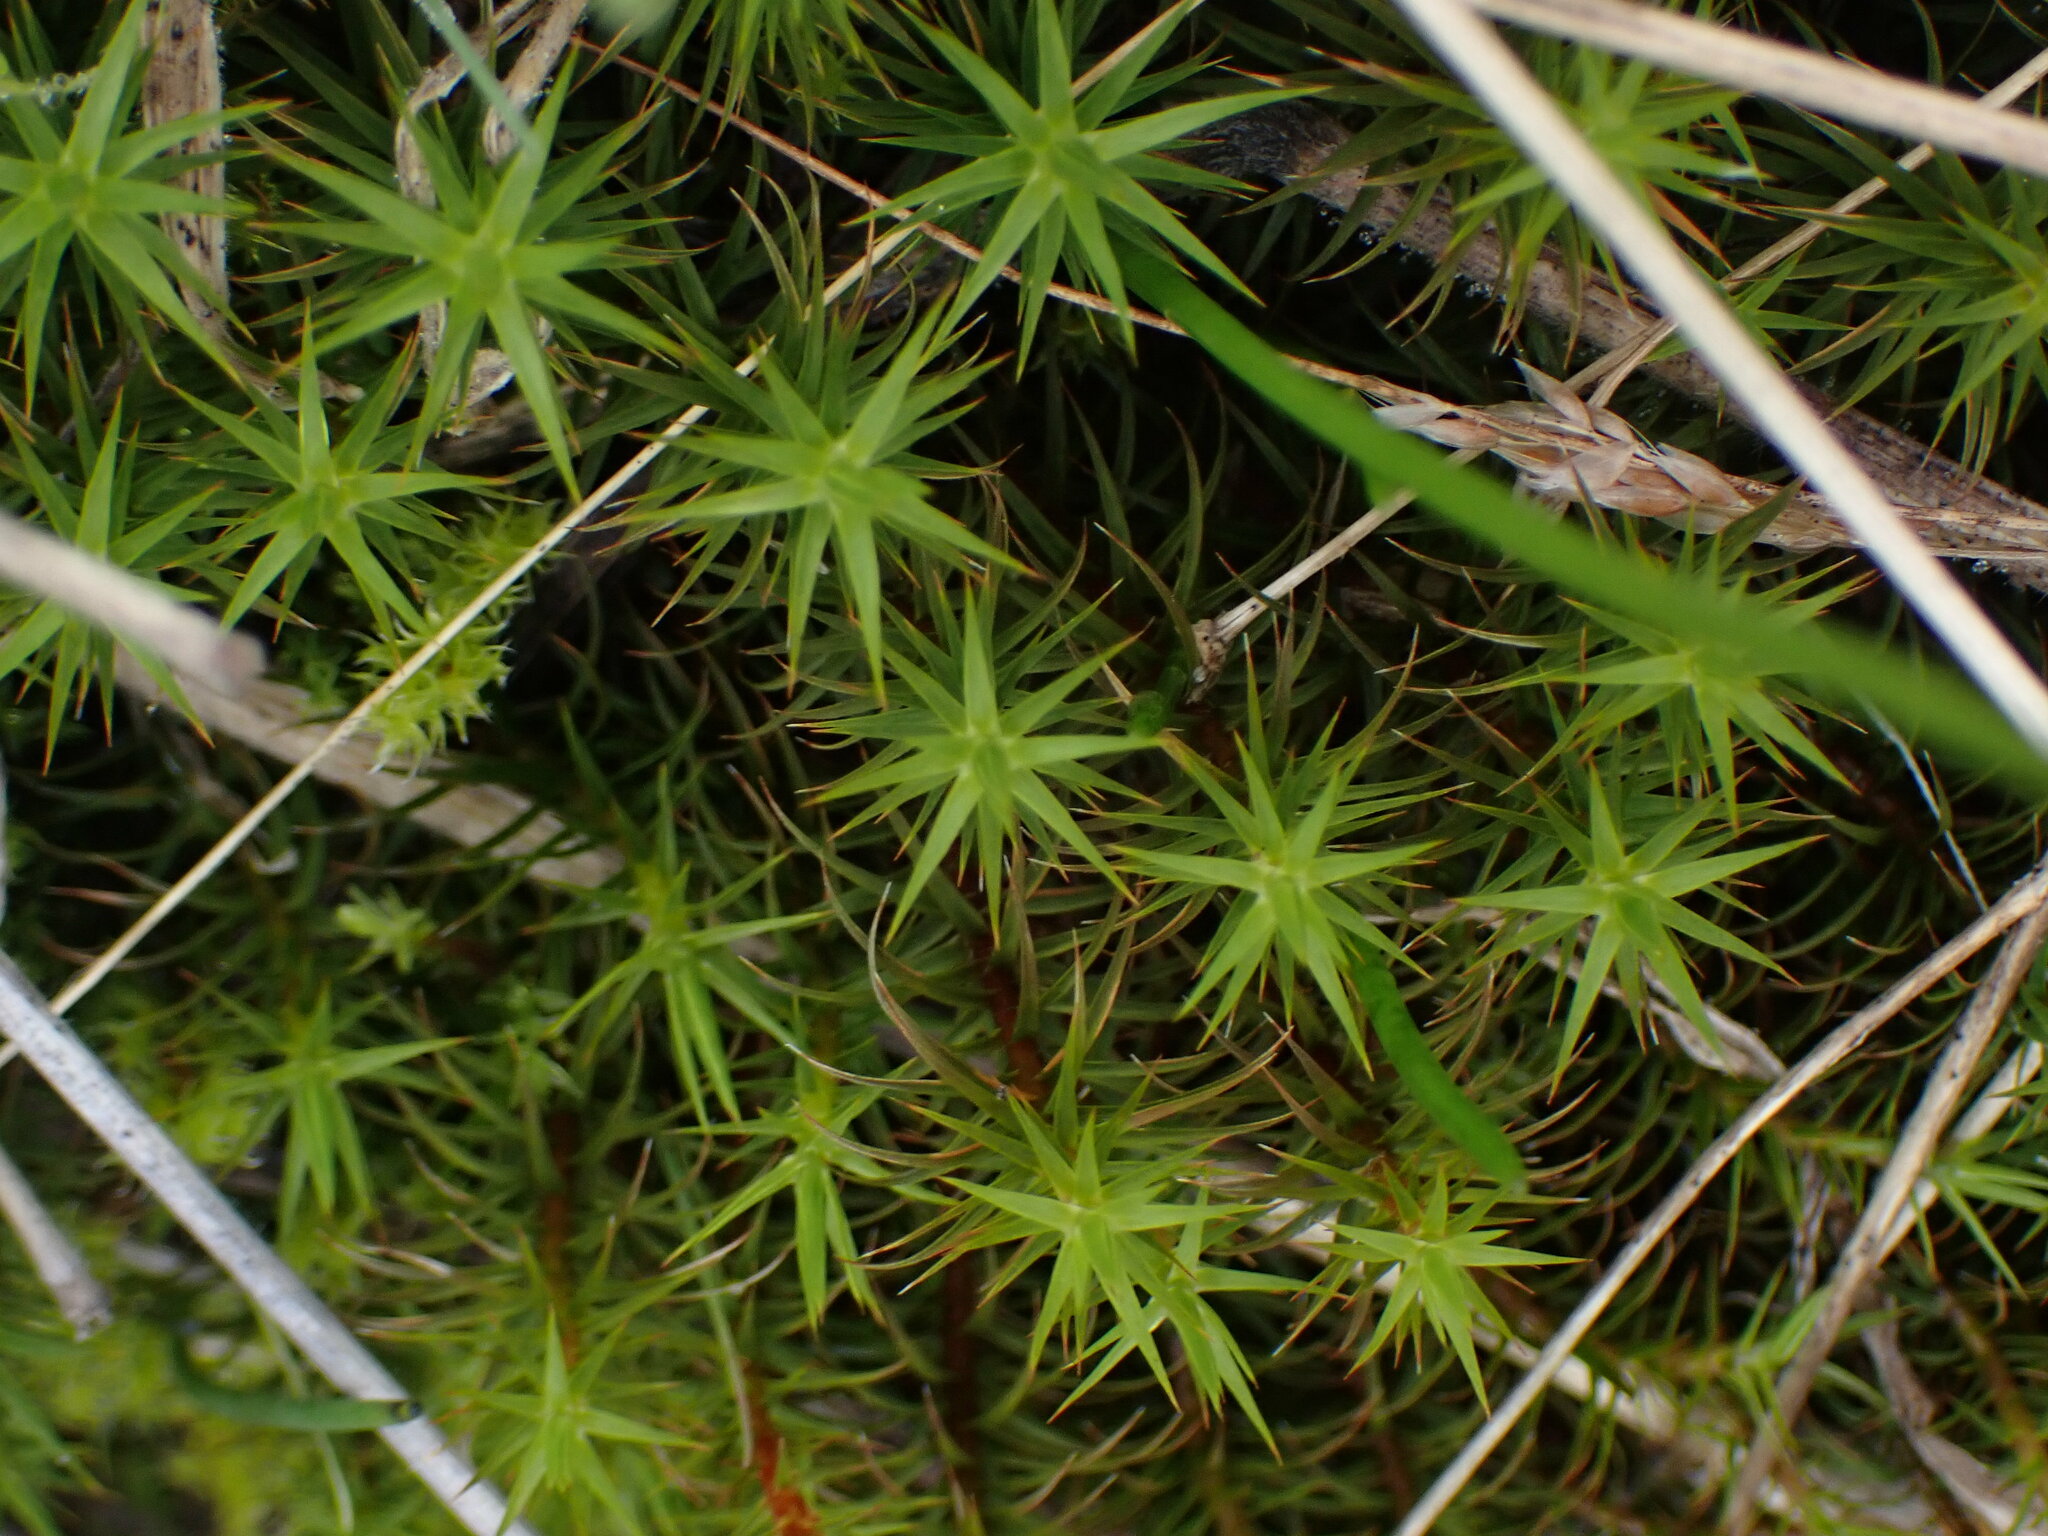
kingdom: Plantae
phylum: Bryophyta
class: Polytrichopsida
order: Polytrichales
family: Polytrichaceae
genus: Polytrichum
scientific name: Polytrichum commune
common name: Common haircap
